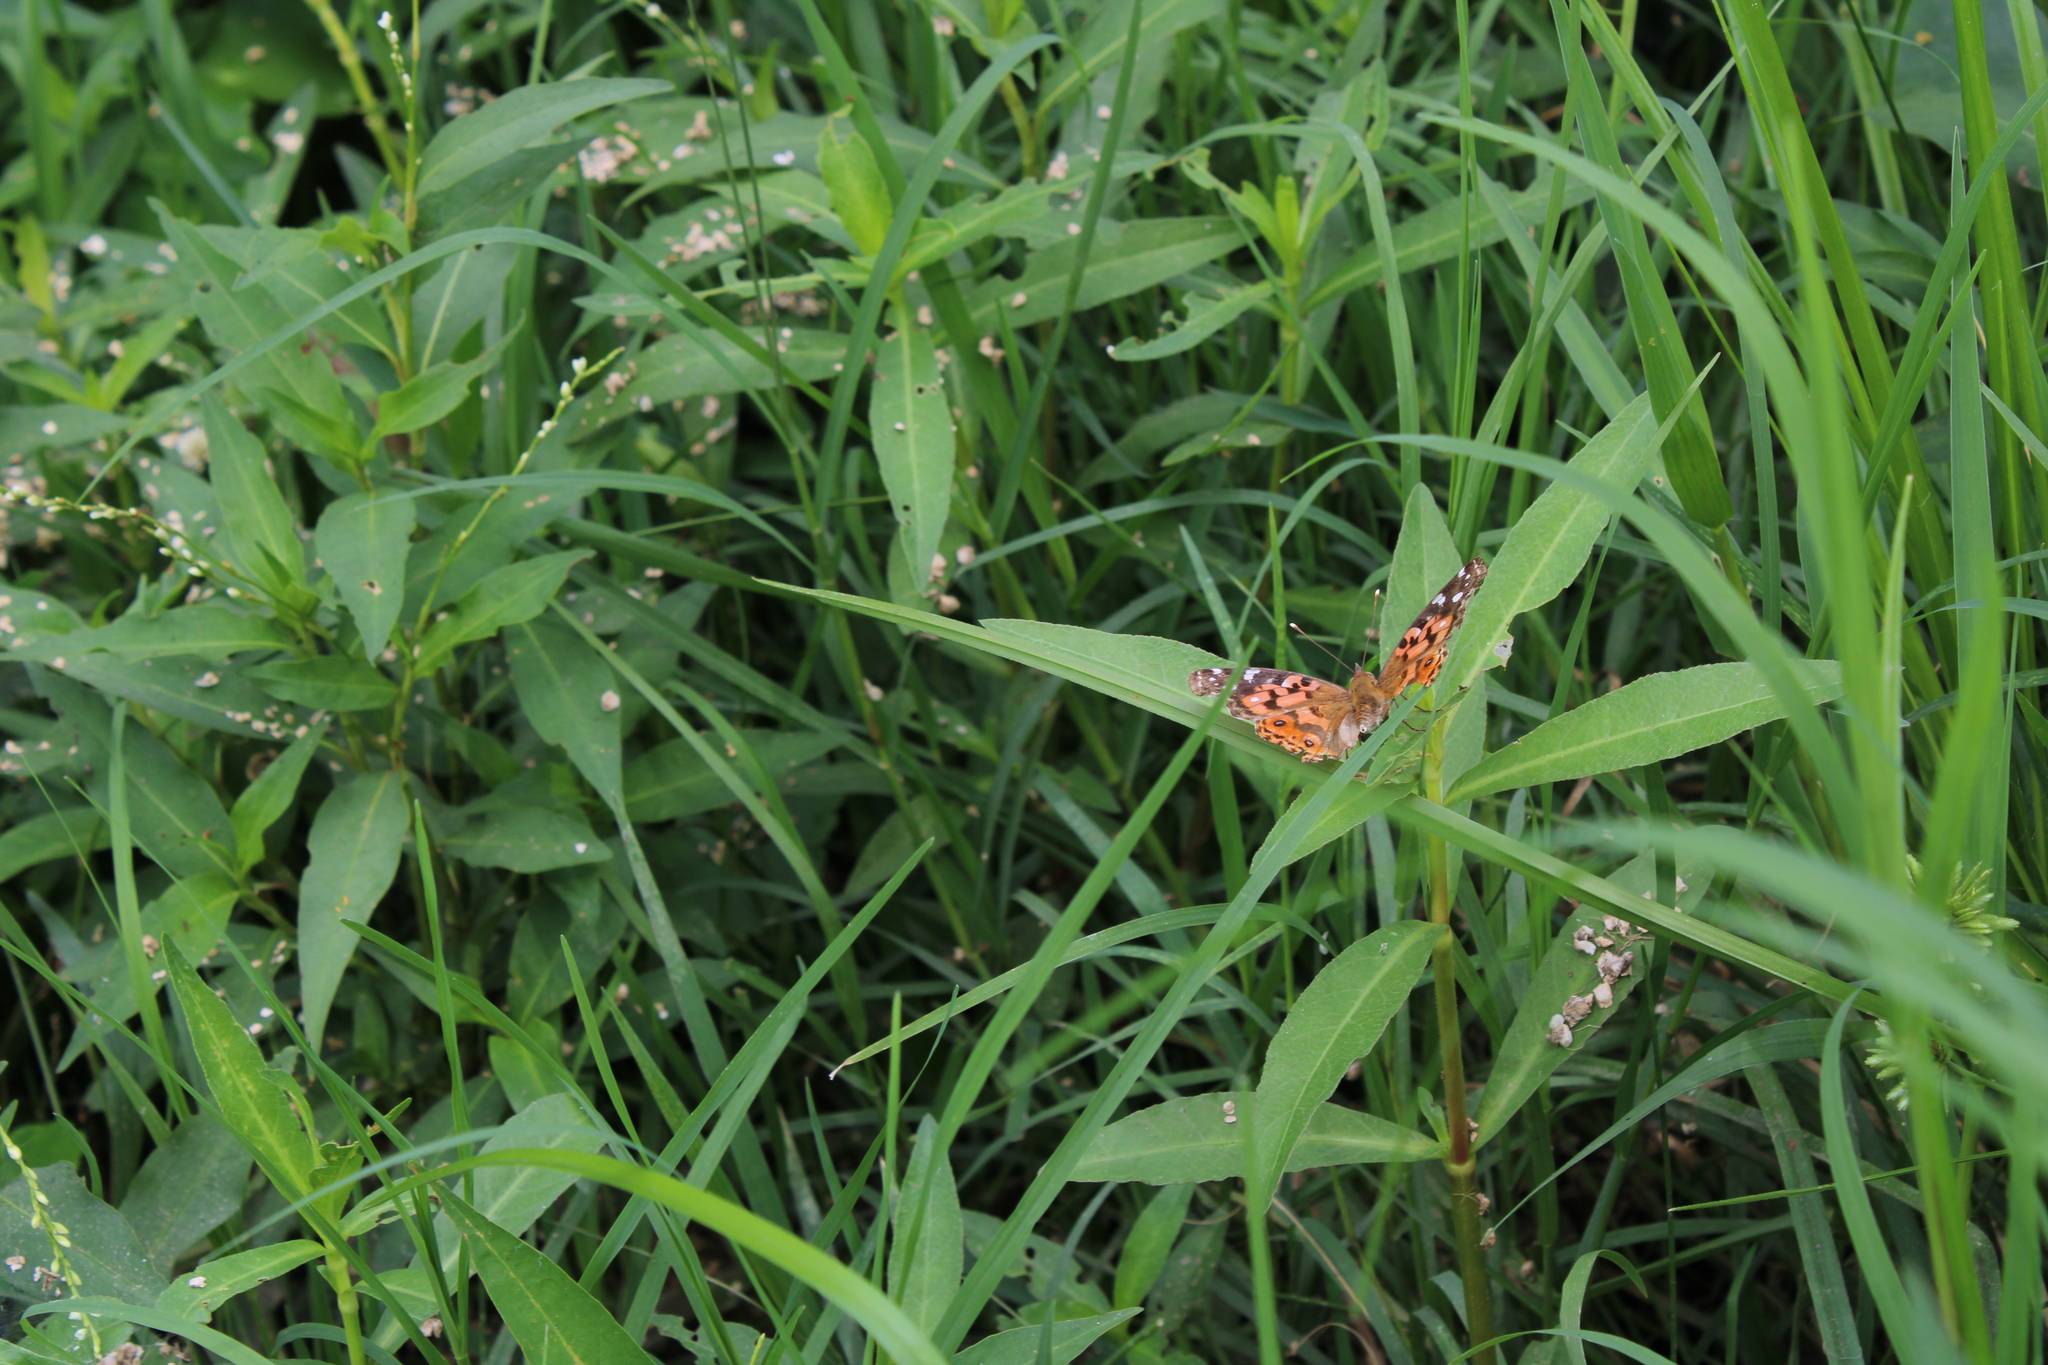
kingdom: Animalia
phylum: Arthropoda
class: Insecta
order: Lepidoptera
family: Nymphalidae
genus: Vanessa
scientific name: Vanessa braziliensis
